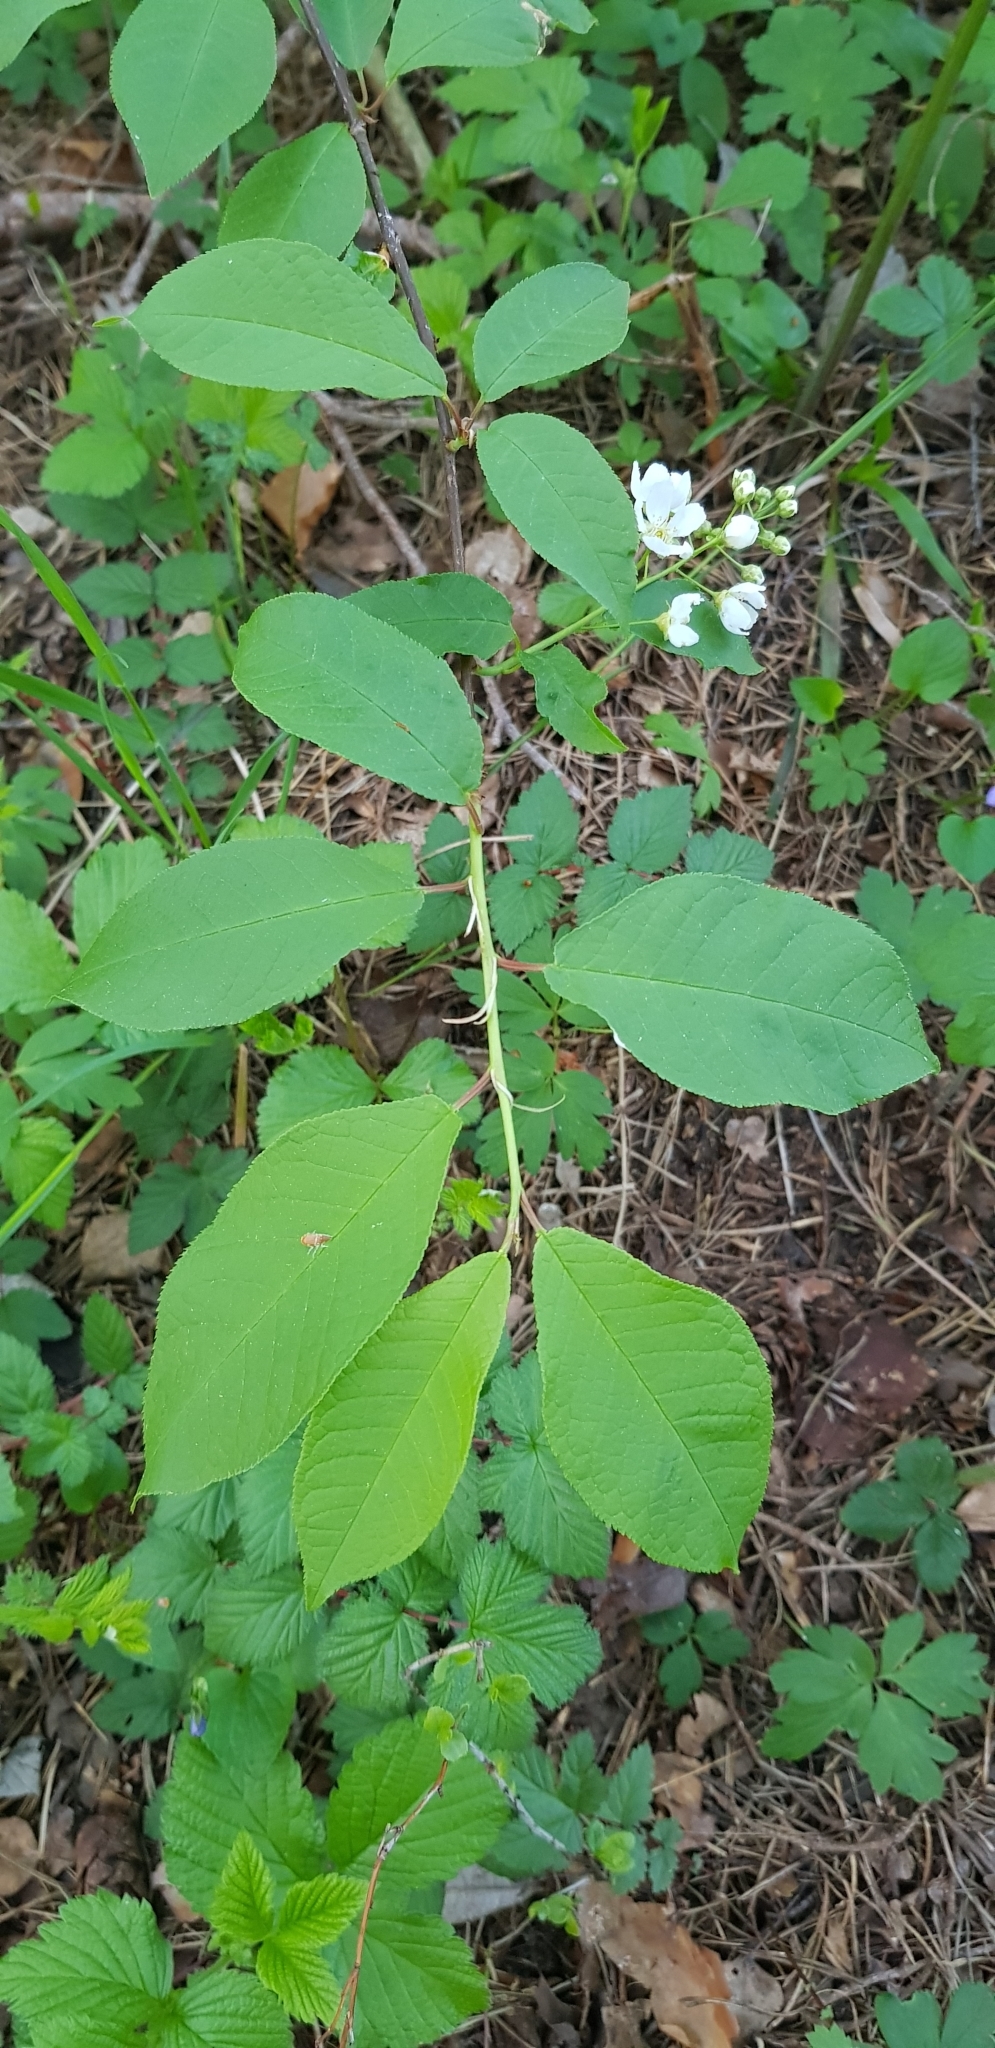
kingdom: Plantae
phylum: Tracheophyta
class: Magnoliopsida
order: Rosales
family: Rosaceae
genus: Prunus
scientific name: Prunus padus
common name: Bird cherry
